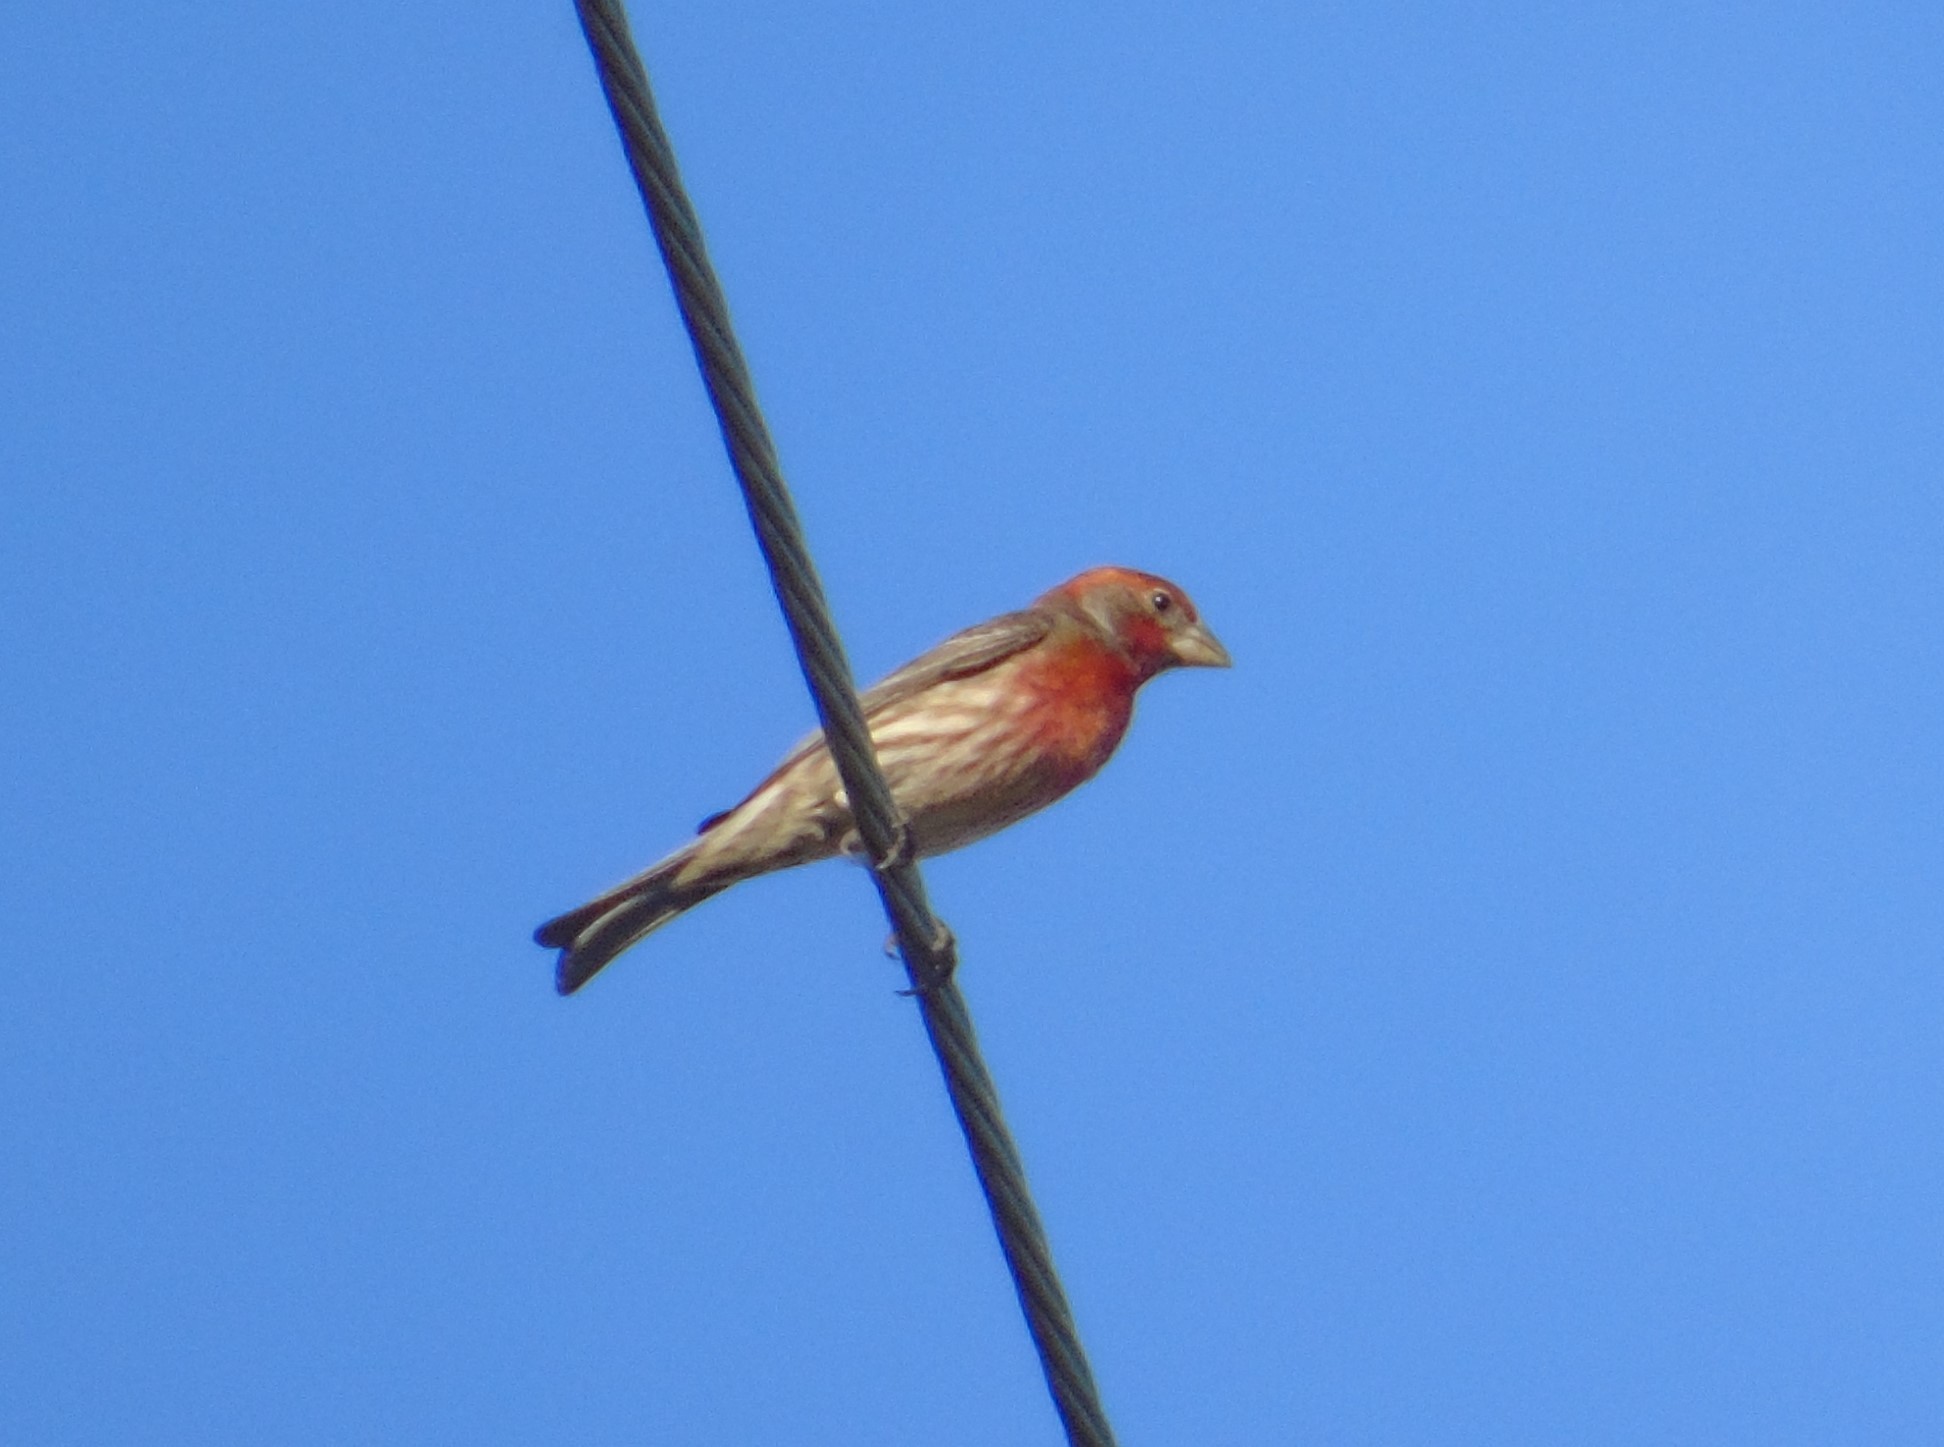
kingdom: Animalia
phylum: Chordata
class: Aves
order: Passeriformes
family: Fringillidae
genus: Haemorhous
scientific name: Haemorhous mexicanus
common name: House finch
